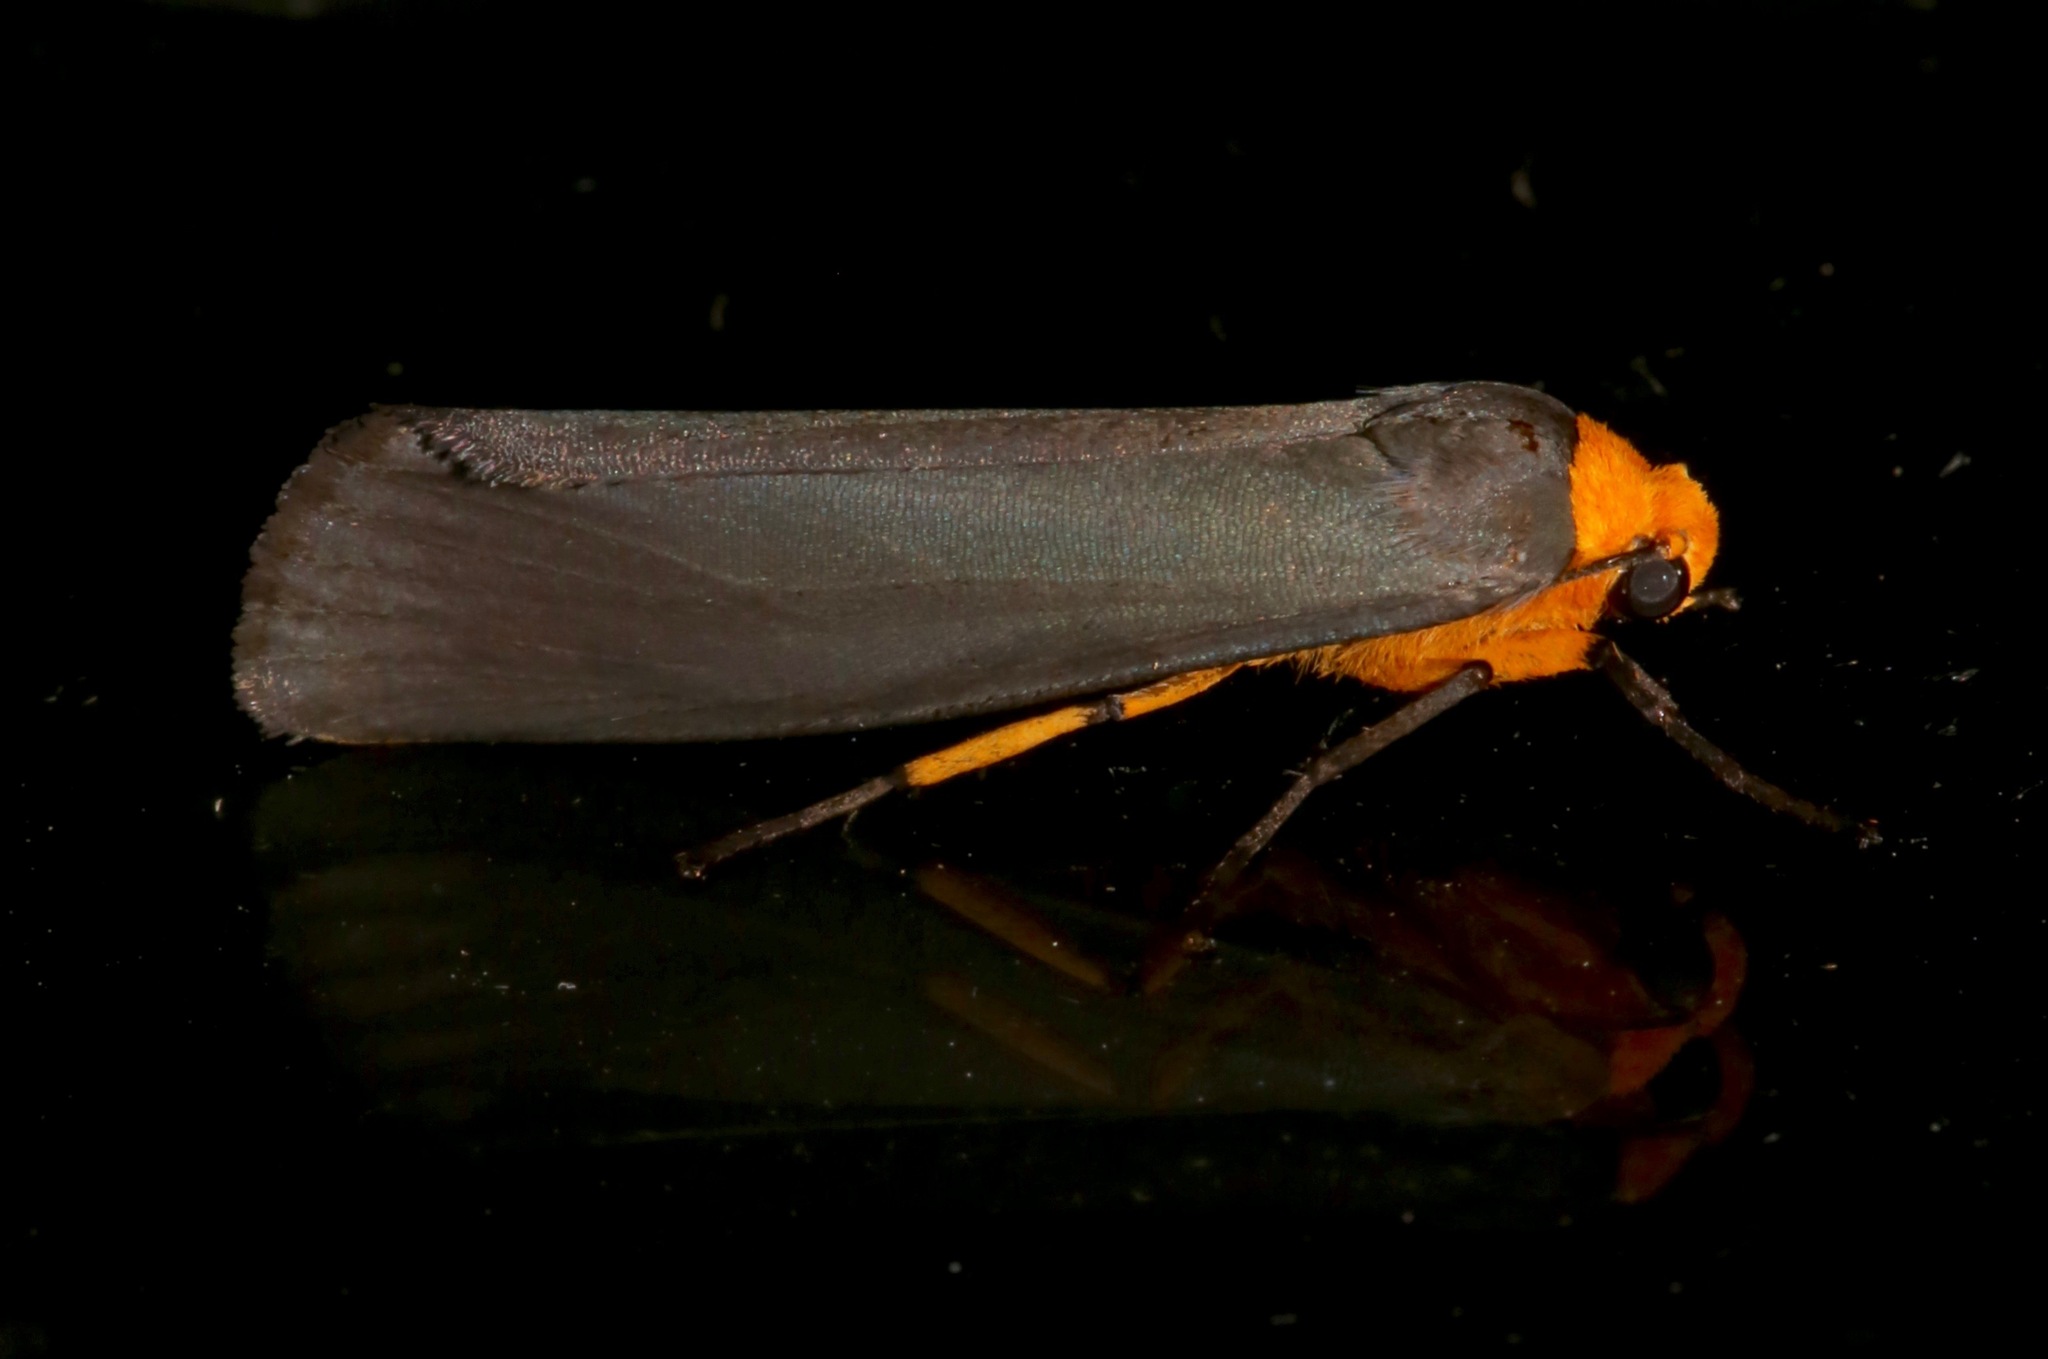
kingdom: Animalia
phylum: Arthropoda
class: Insecta
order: Lepidoptera
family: Erebidae
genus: Gnamptonychia
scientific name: Gnamptonychia ventralis
